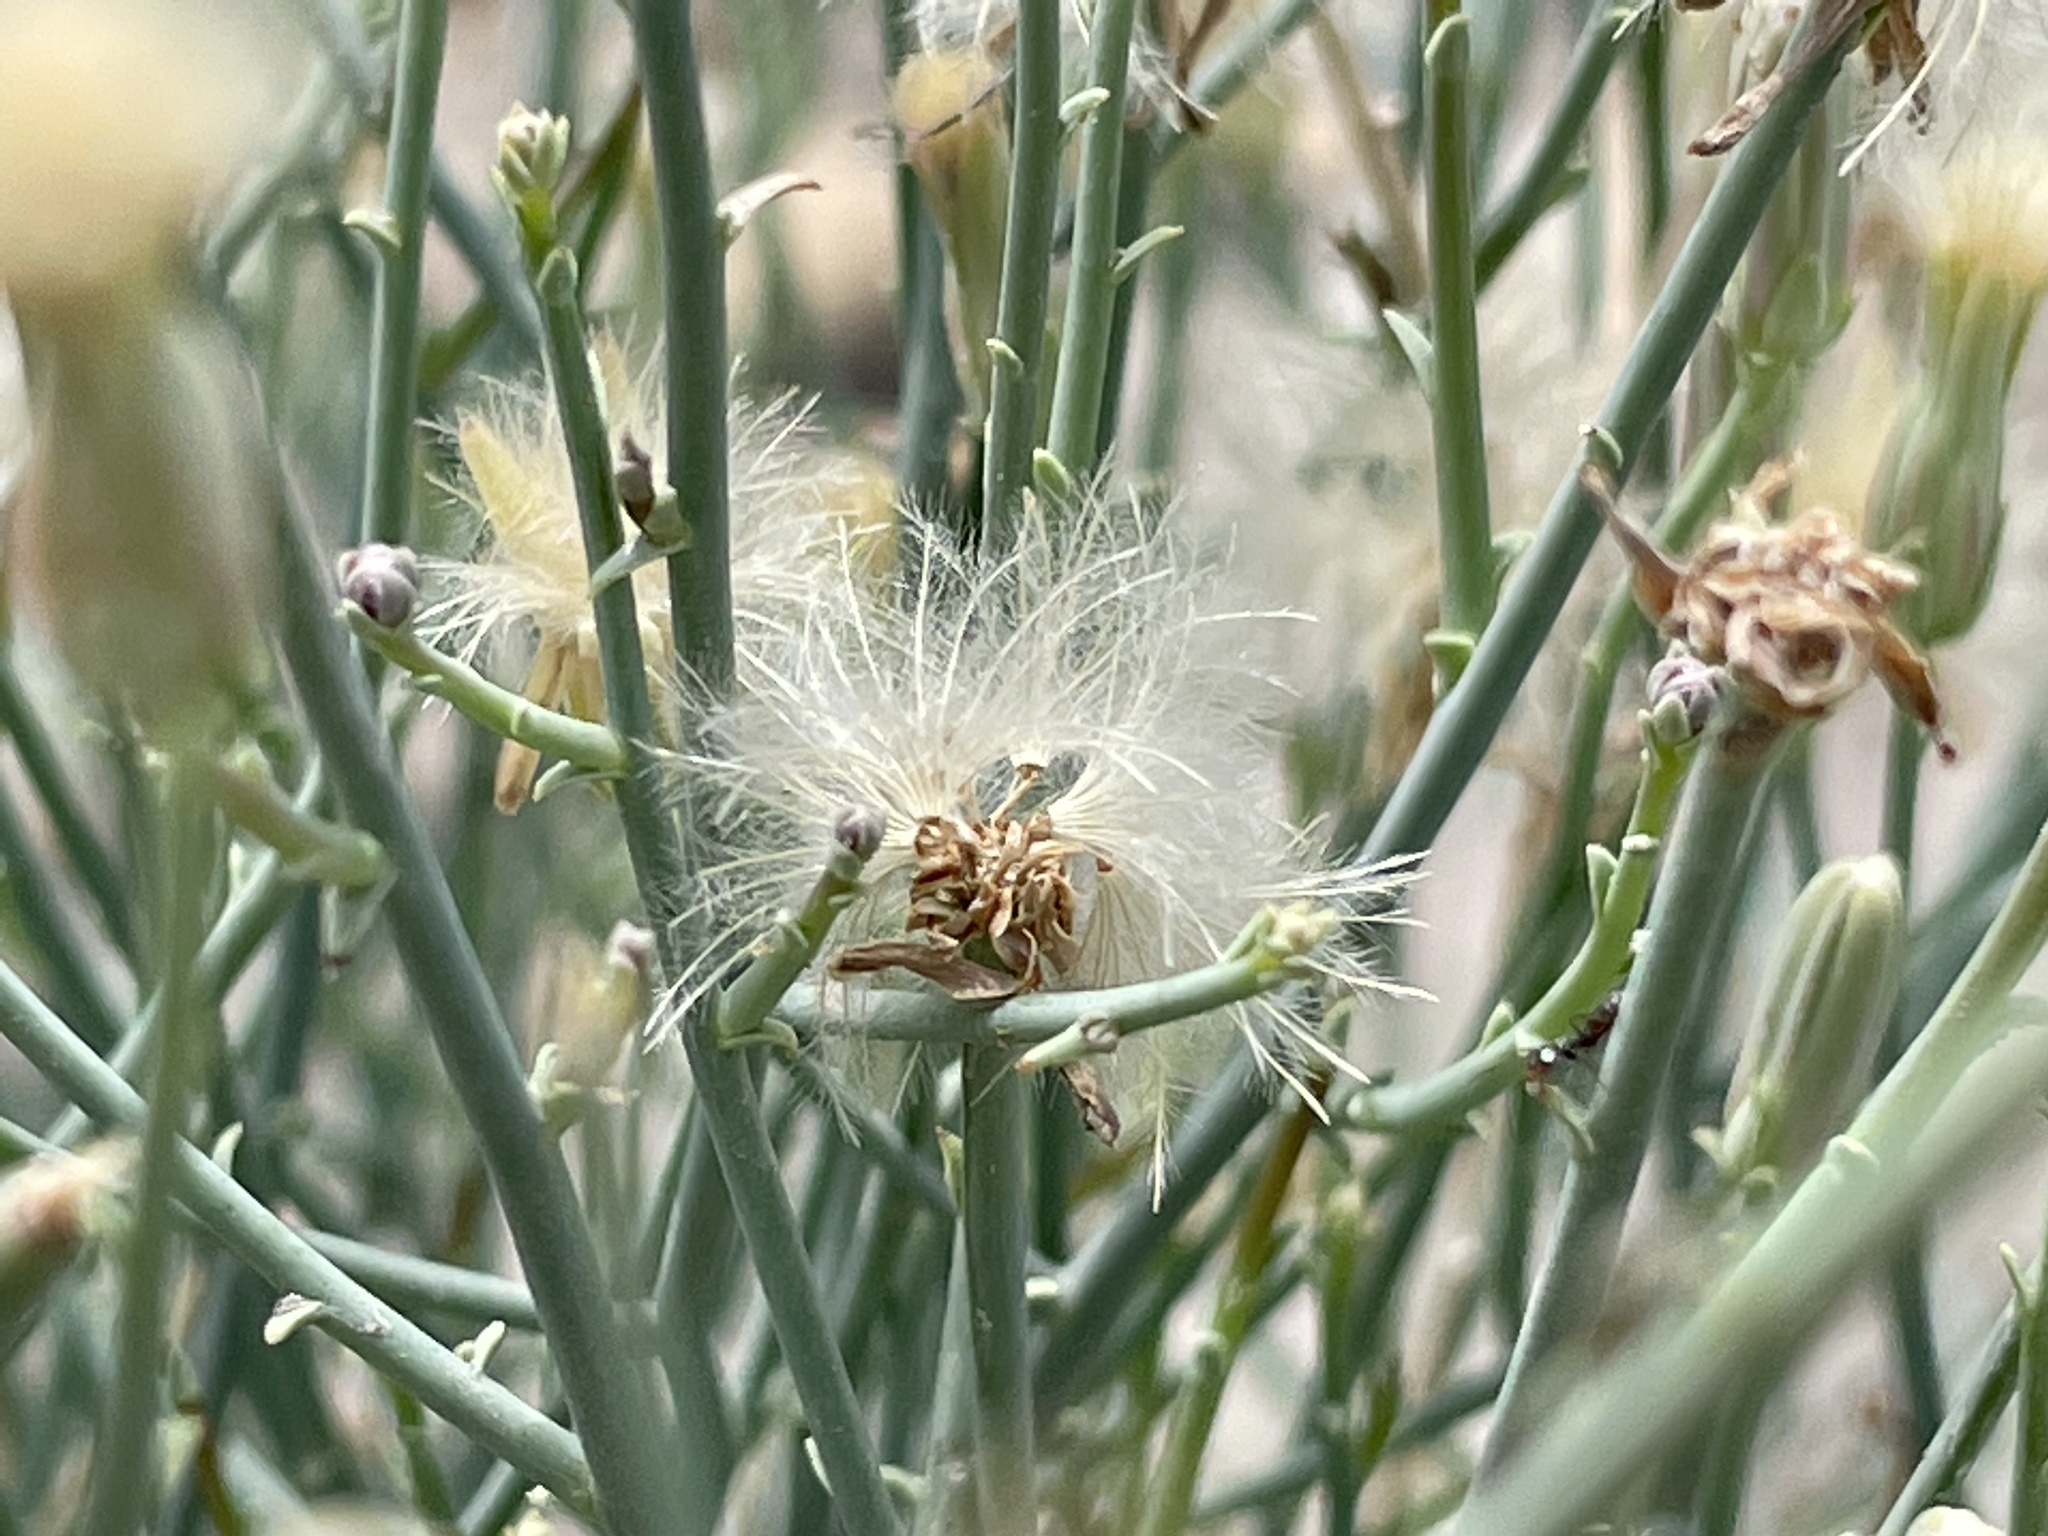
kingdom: Plantae
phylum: Tracheophyta
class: Magnoliopsida
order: Asterales
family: Asteraceae
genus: Stephanomeria
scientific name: Stephanomeria pauciflora
